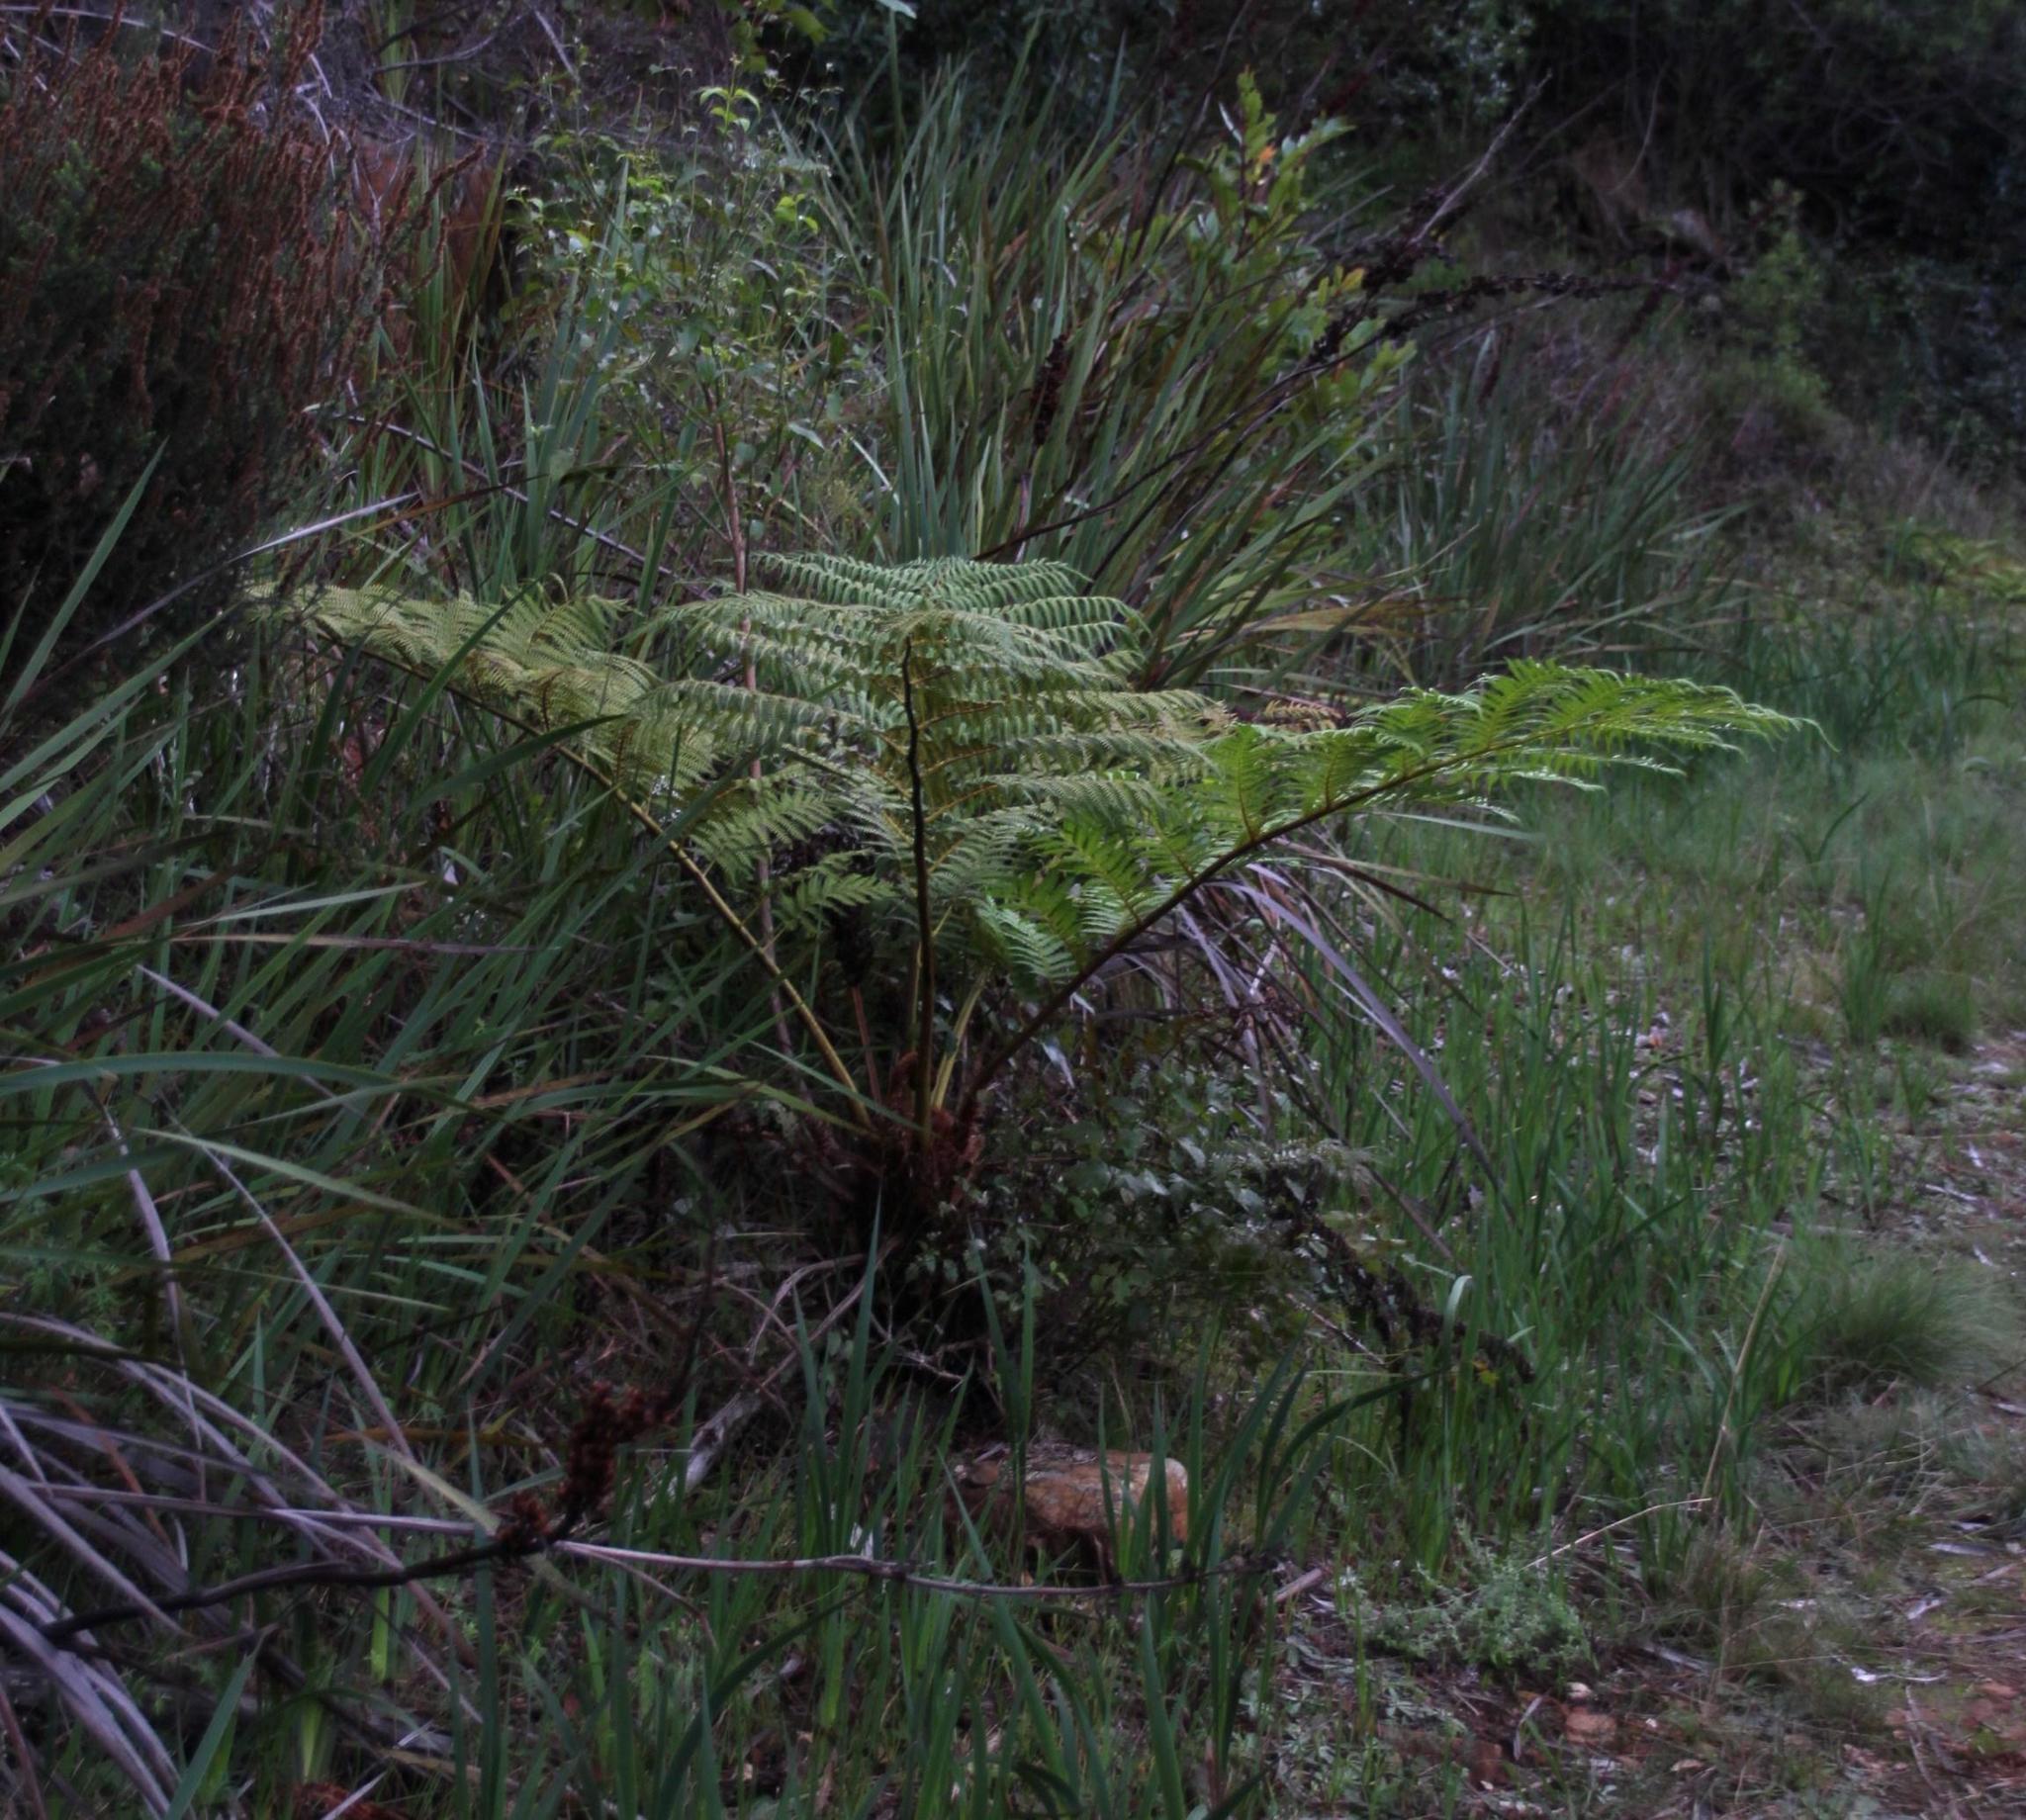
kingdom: Plantae
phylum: Tracheophyta
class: Polypodiopsida
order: Cyatheales
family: Cyatheaceae
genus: Sphaeropteris
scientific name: Sphaeropteris cooperi
